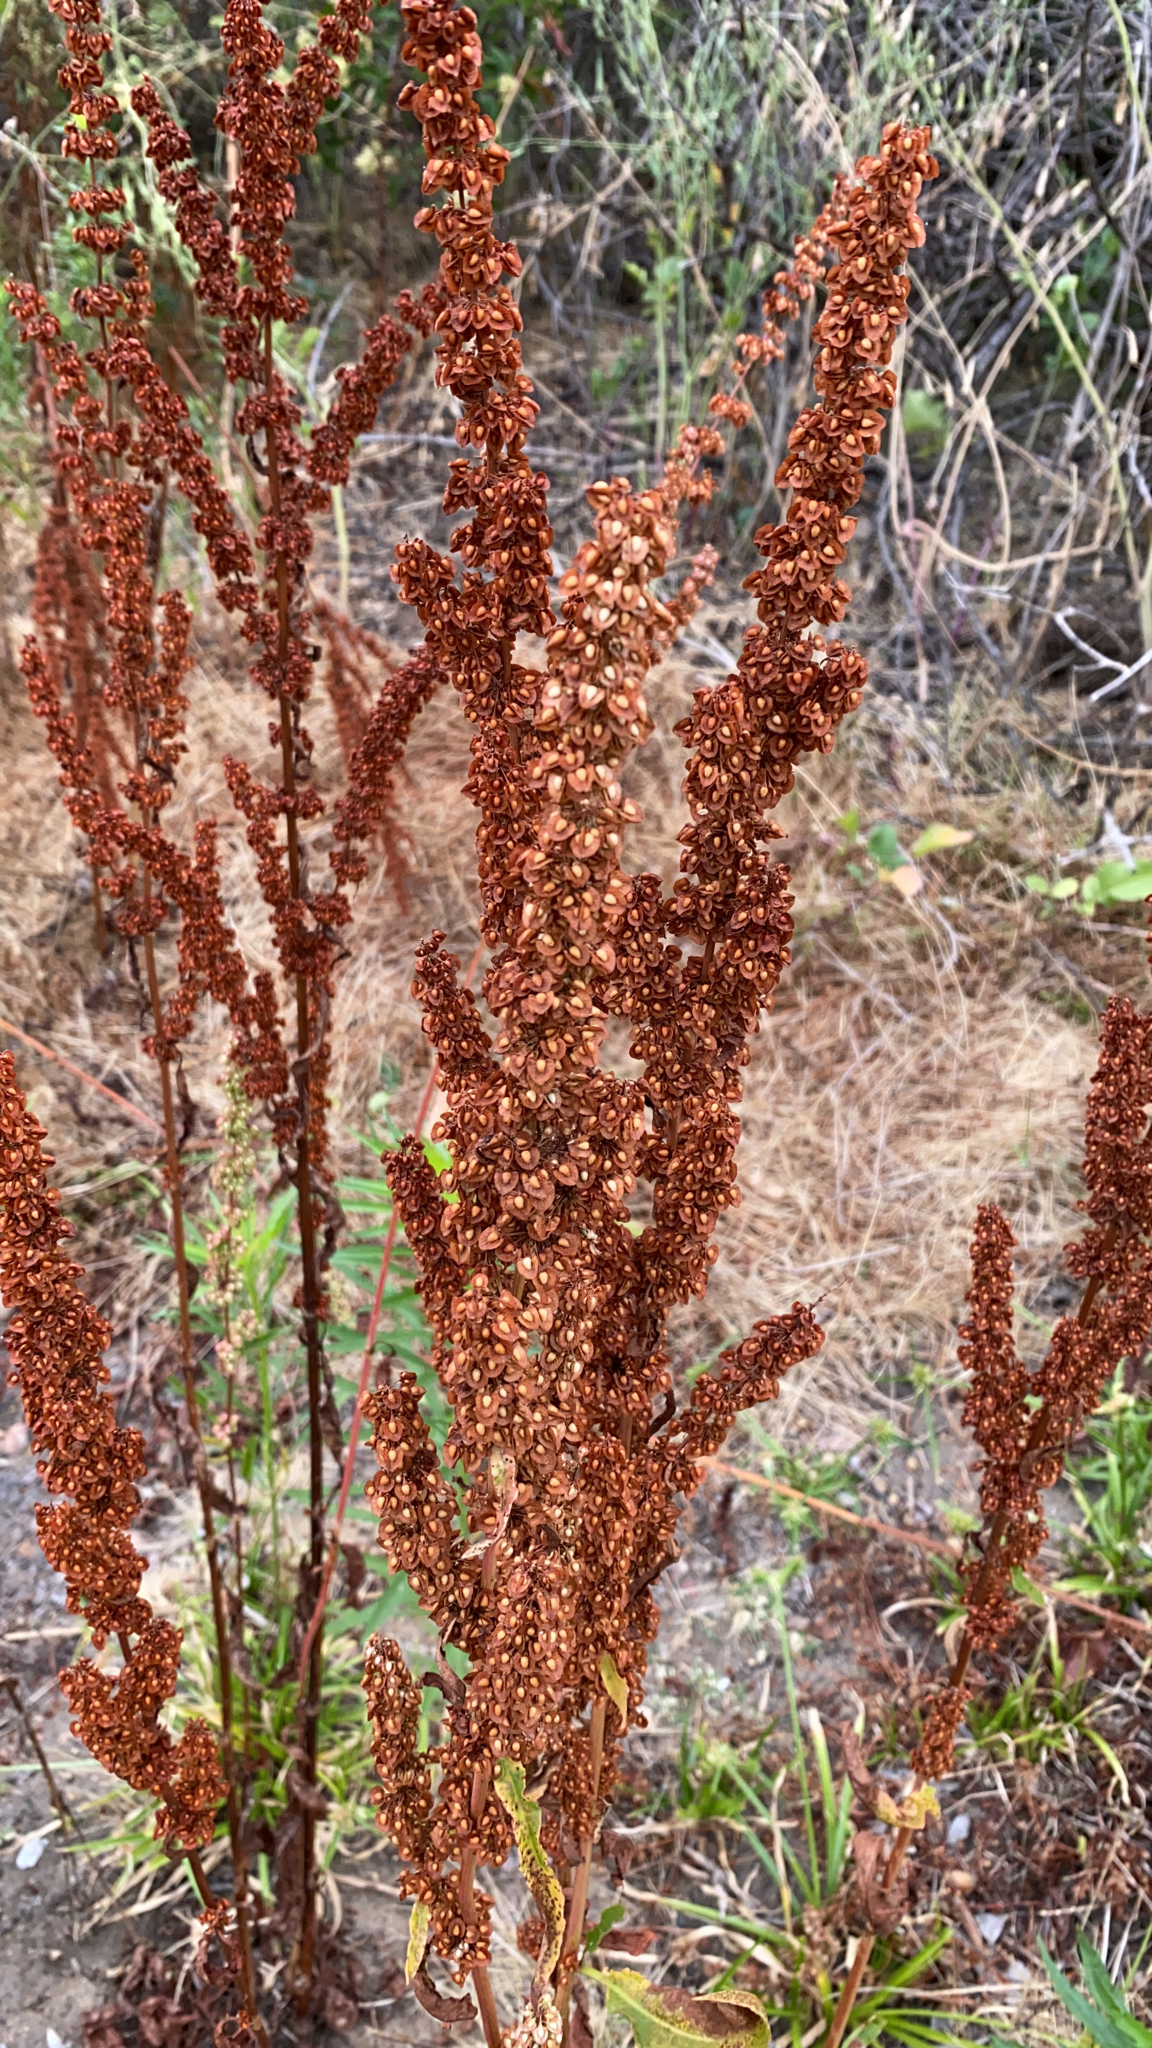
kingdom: Plantae
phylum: Tracheophyta
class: Magnoliopsida
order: Caryophyllales
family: Polygonaceae
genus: Rumex
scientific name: Rumex crispus
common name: Curled dock
